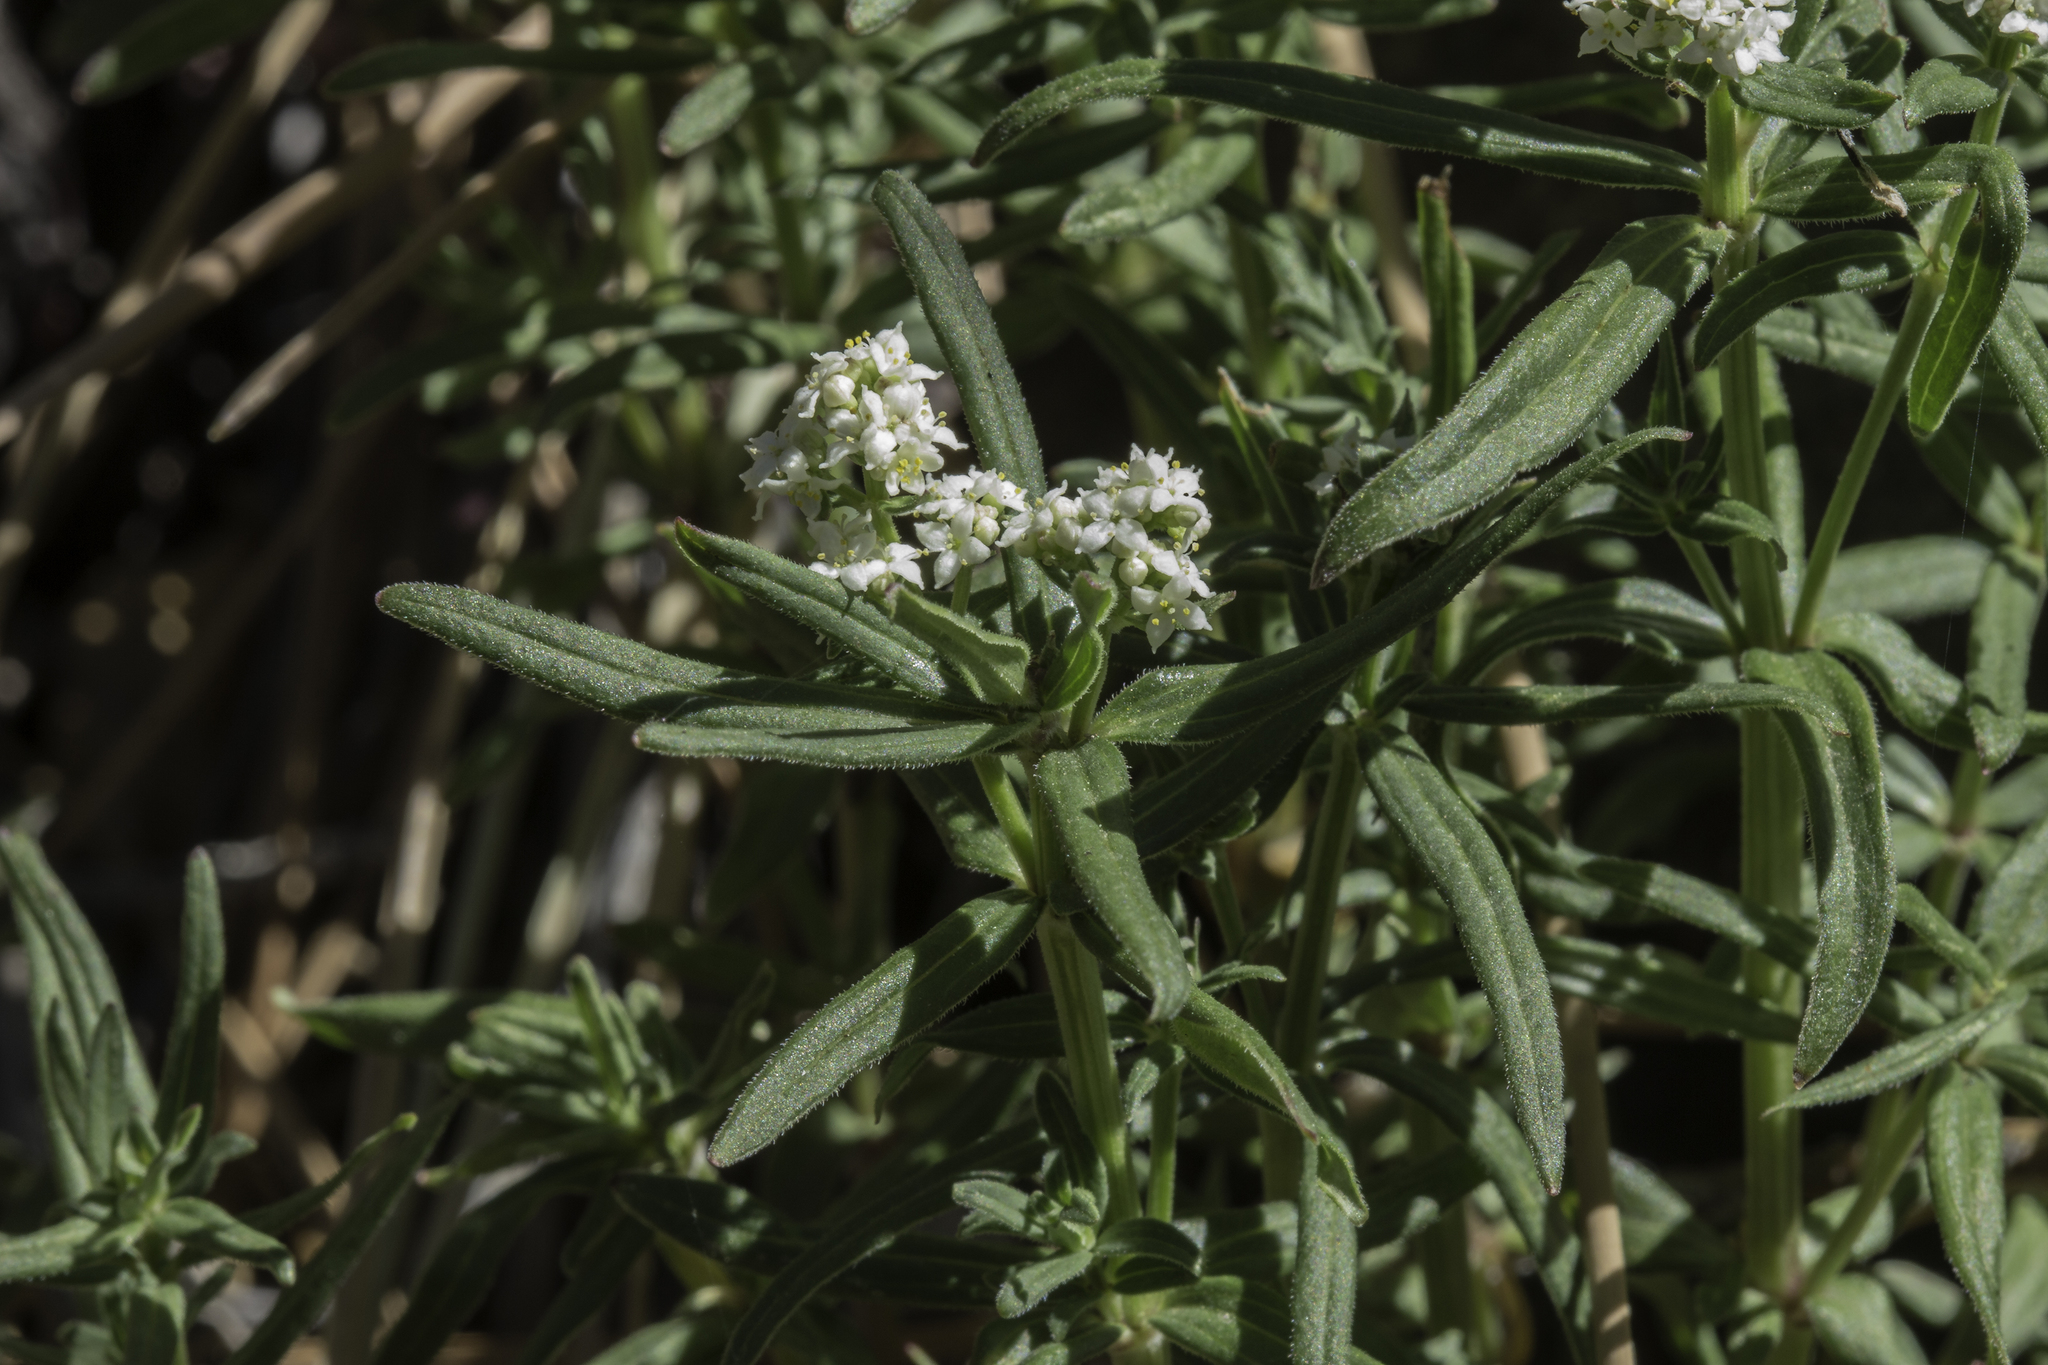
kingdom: Plantae
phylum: Tracheophyta
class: Magnoliopsida
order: Gentianales
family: Rubiaceae
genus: Galium
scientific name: Galium boreale
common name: Northern bedstraw
